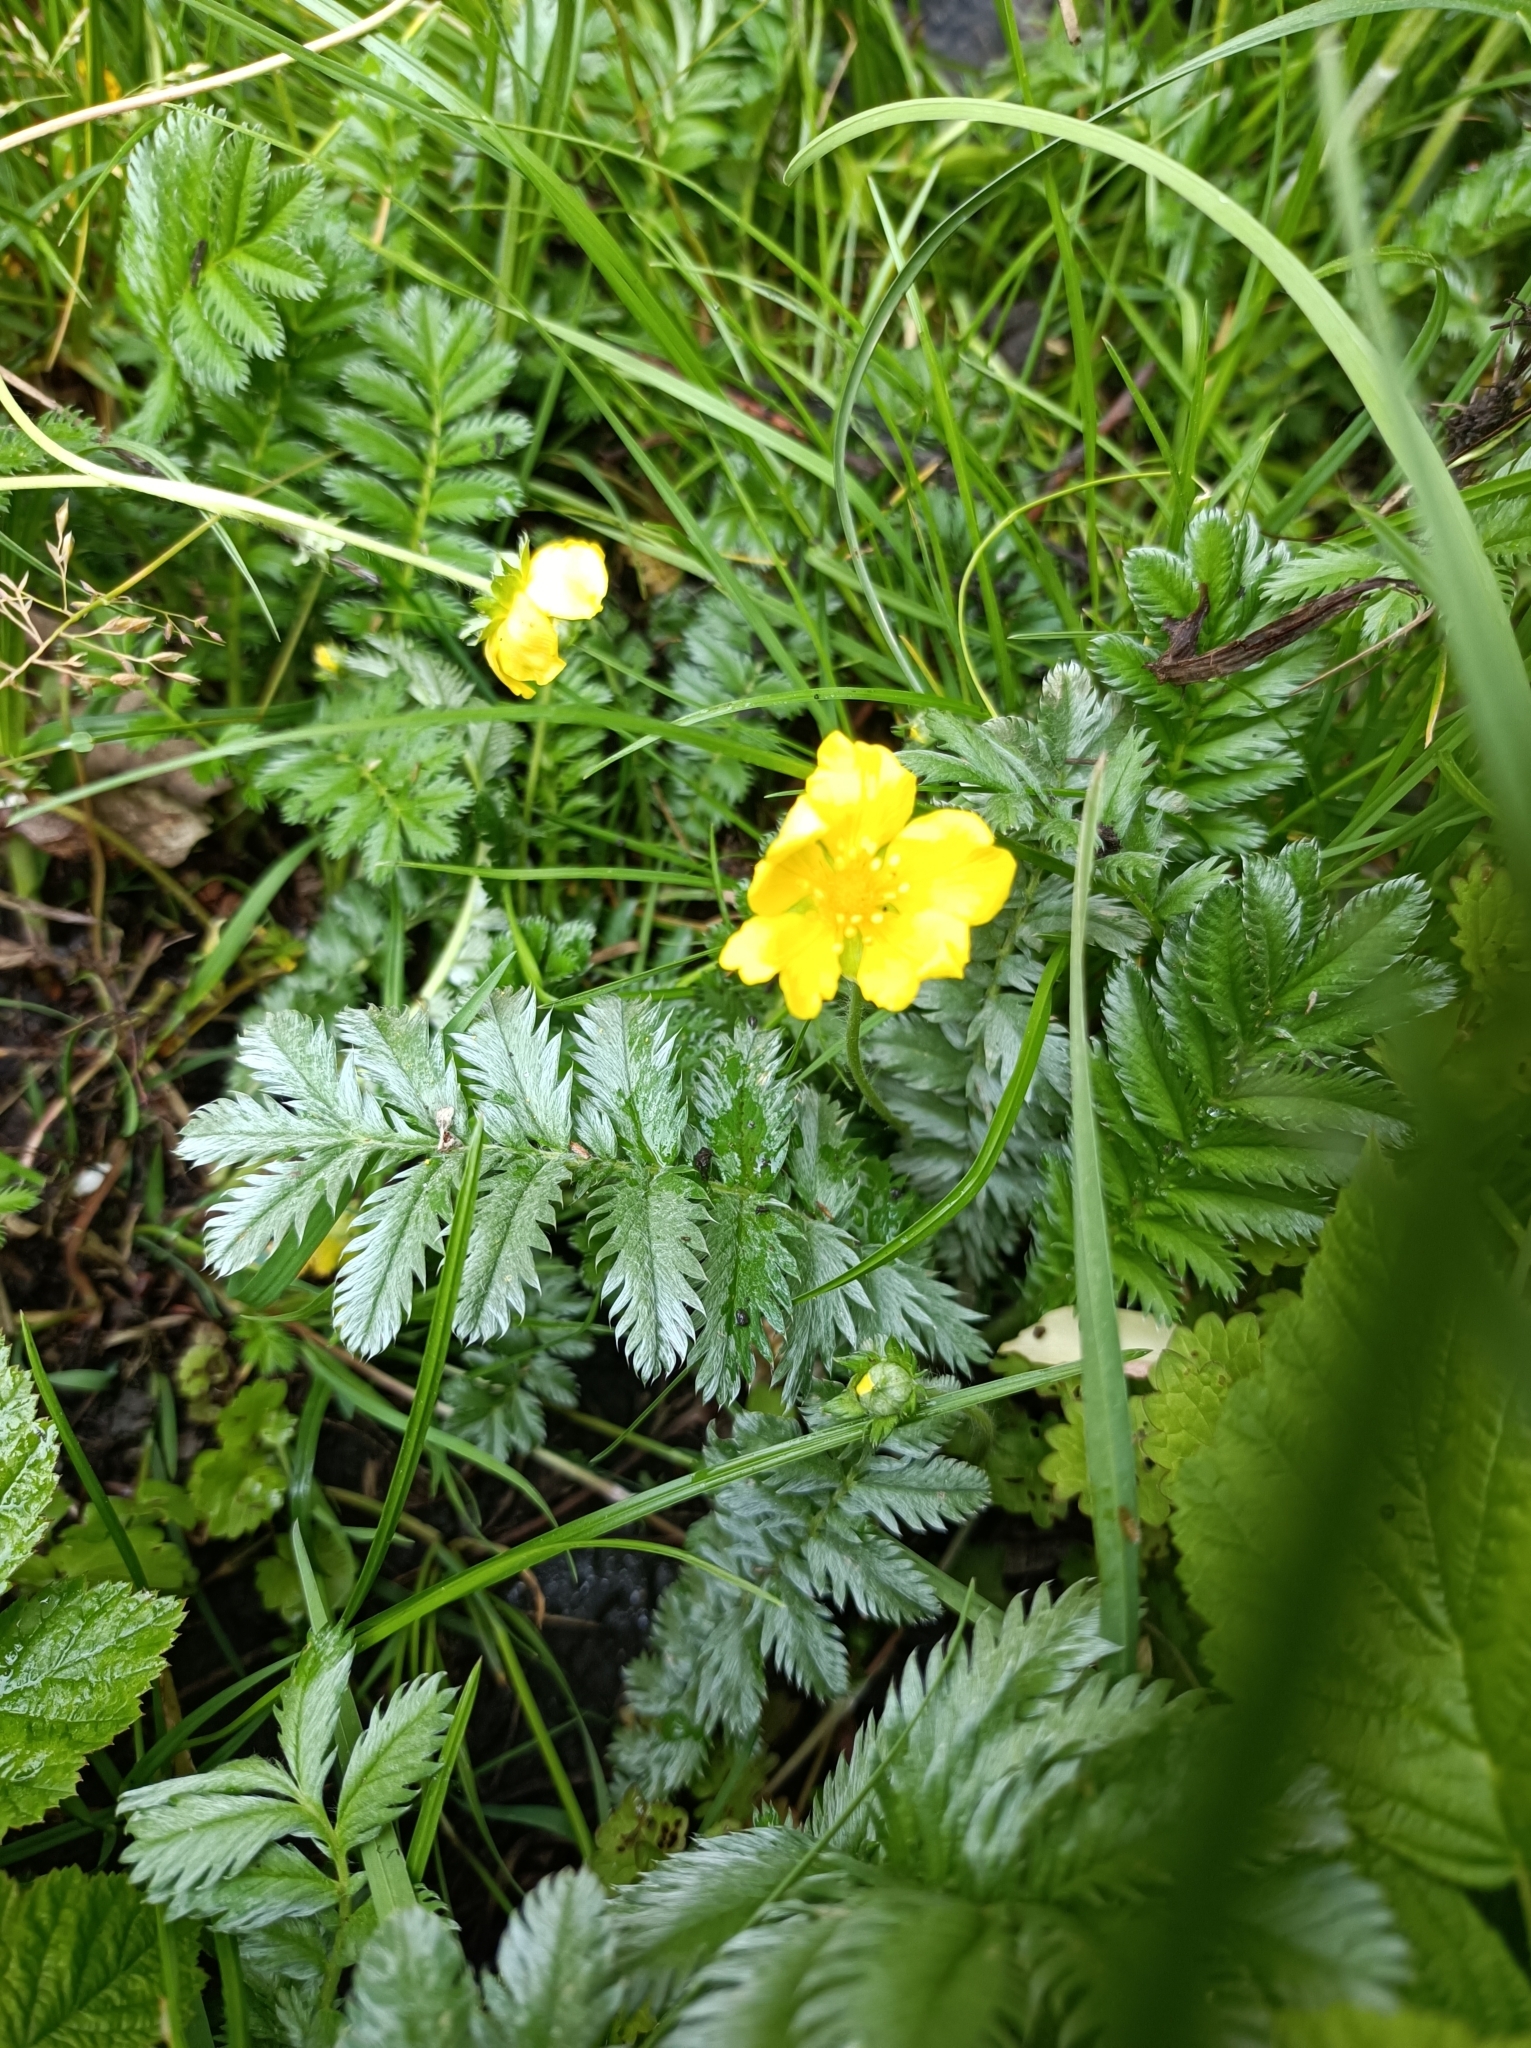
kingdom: Plantae
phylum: Tracheophyta
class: Magnoliopsida
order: Rosales
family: Rosaceae
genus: Argentina
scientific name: Argentina anserina
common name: Common silverweed
